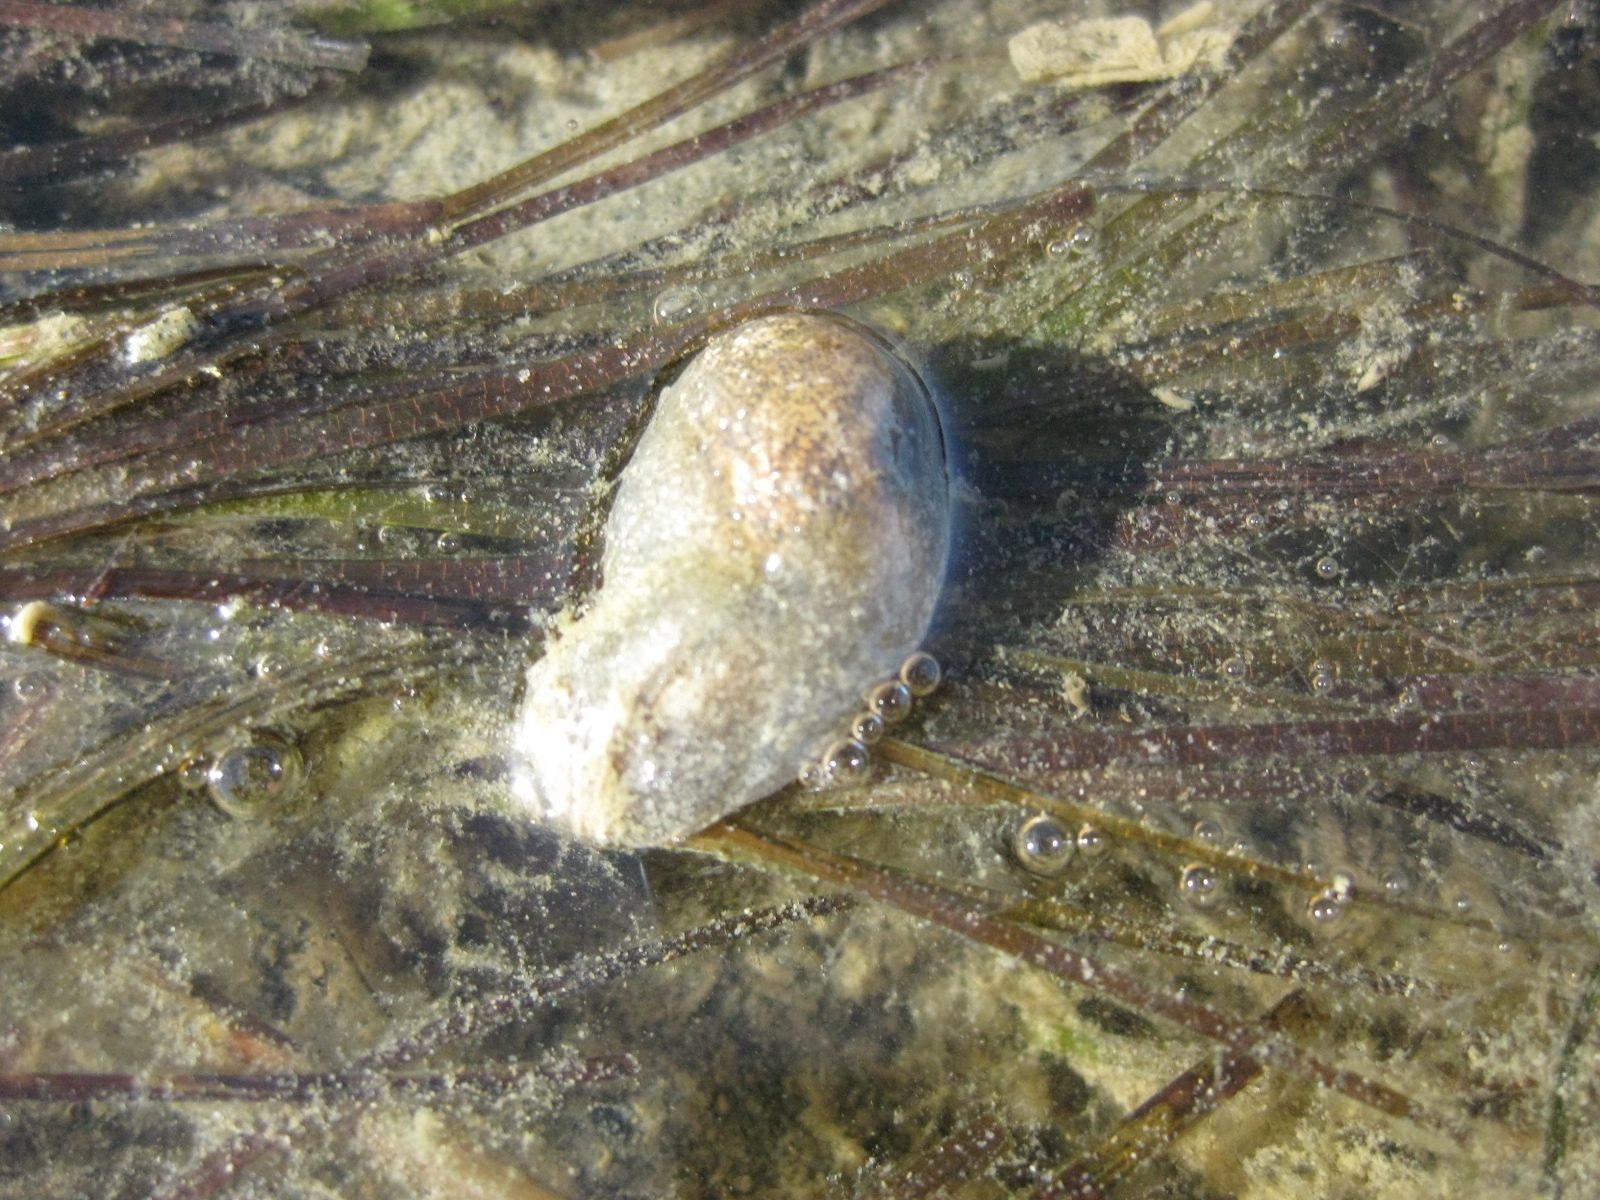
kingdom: Animalia
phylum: Mollusca
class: Gastropoda
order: Cephalaspidea
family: Haminoeidae
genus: Papawera
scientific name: Papawera zelandiae
